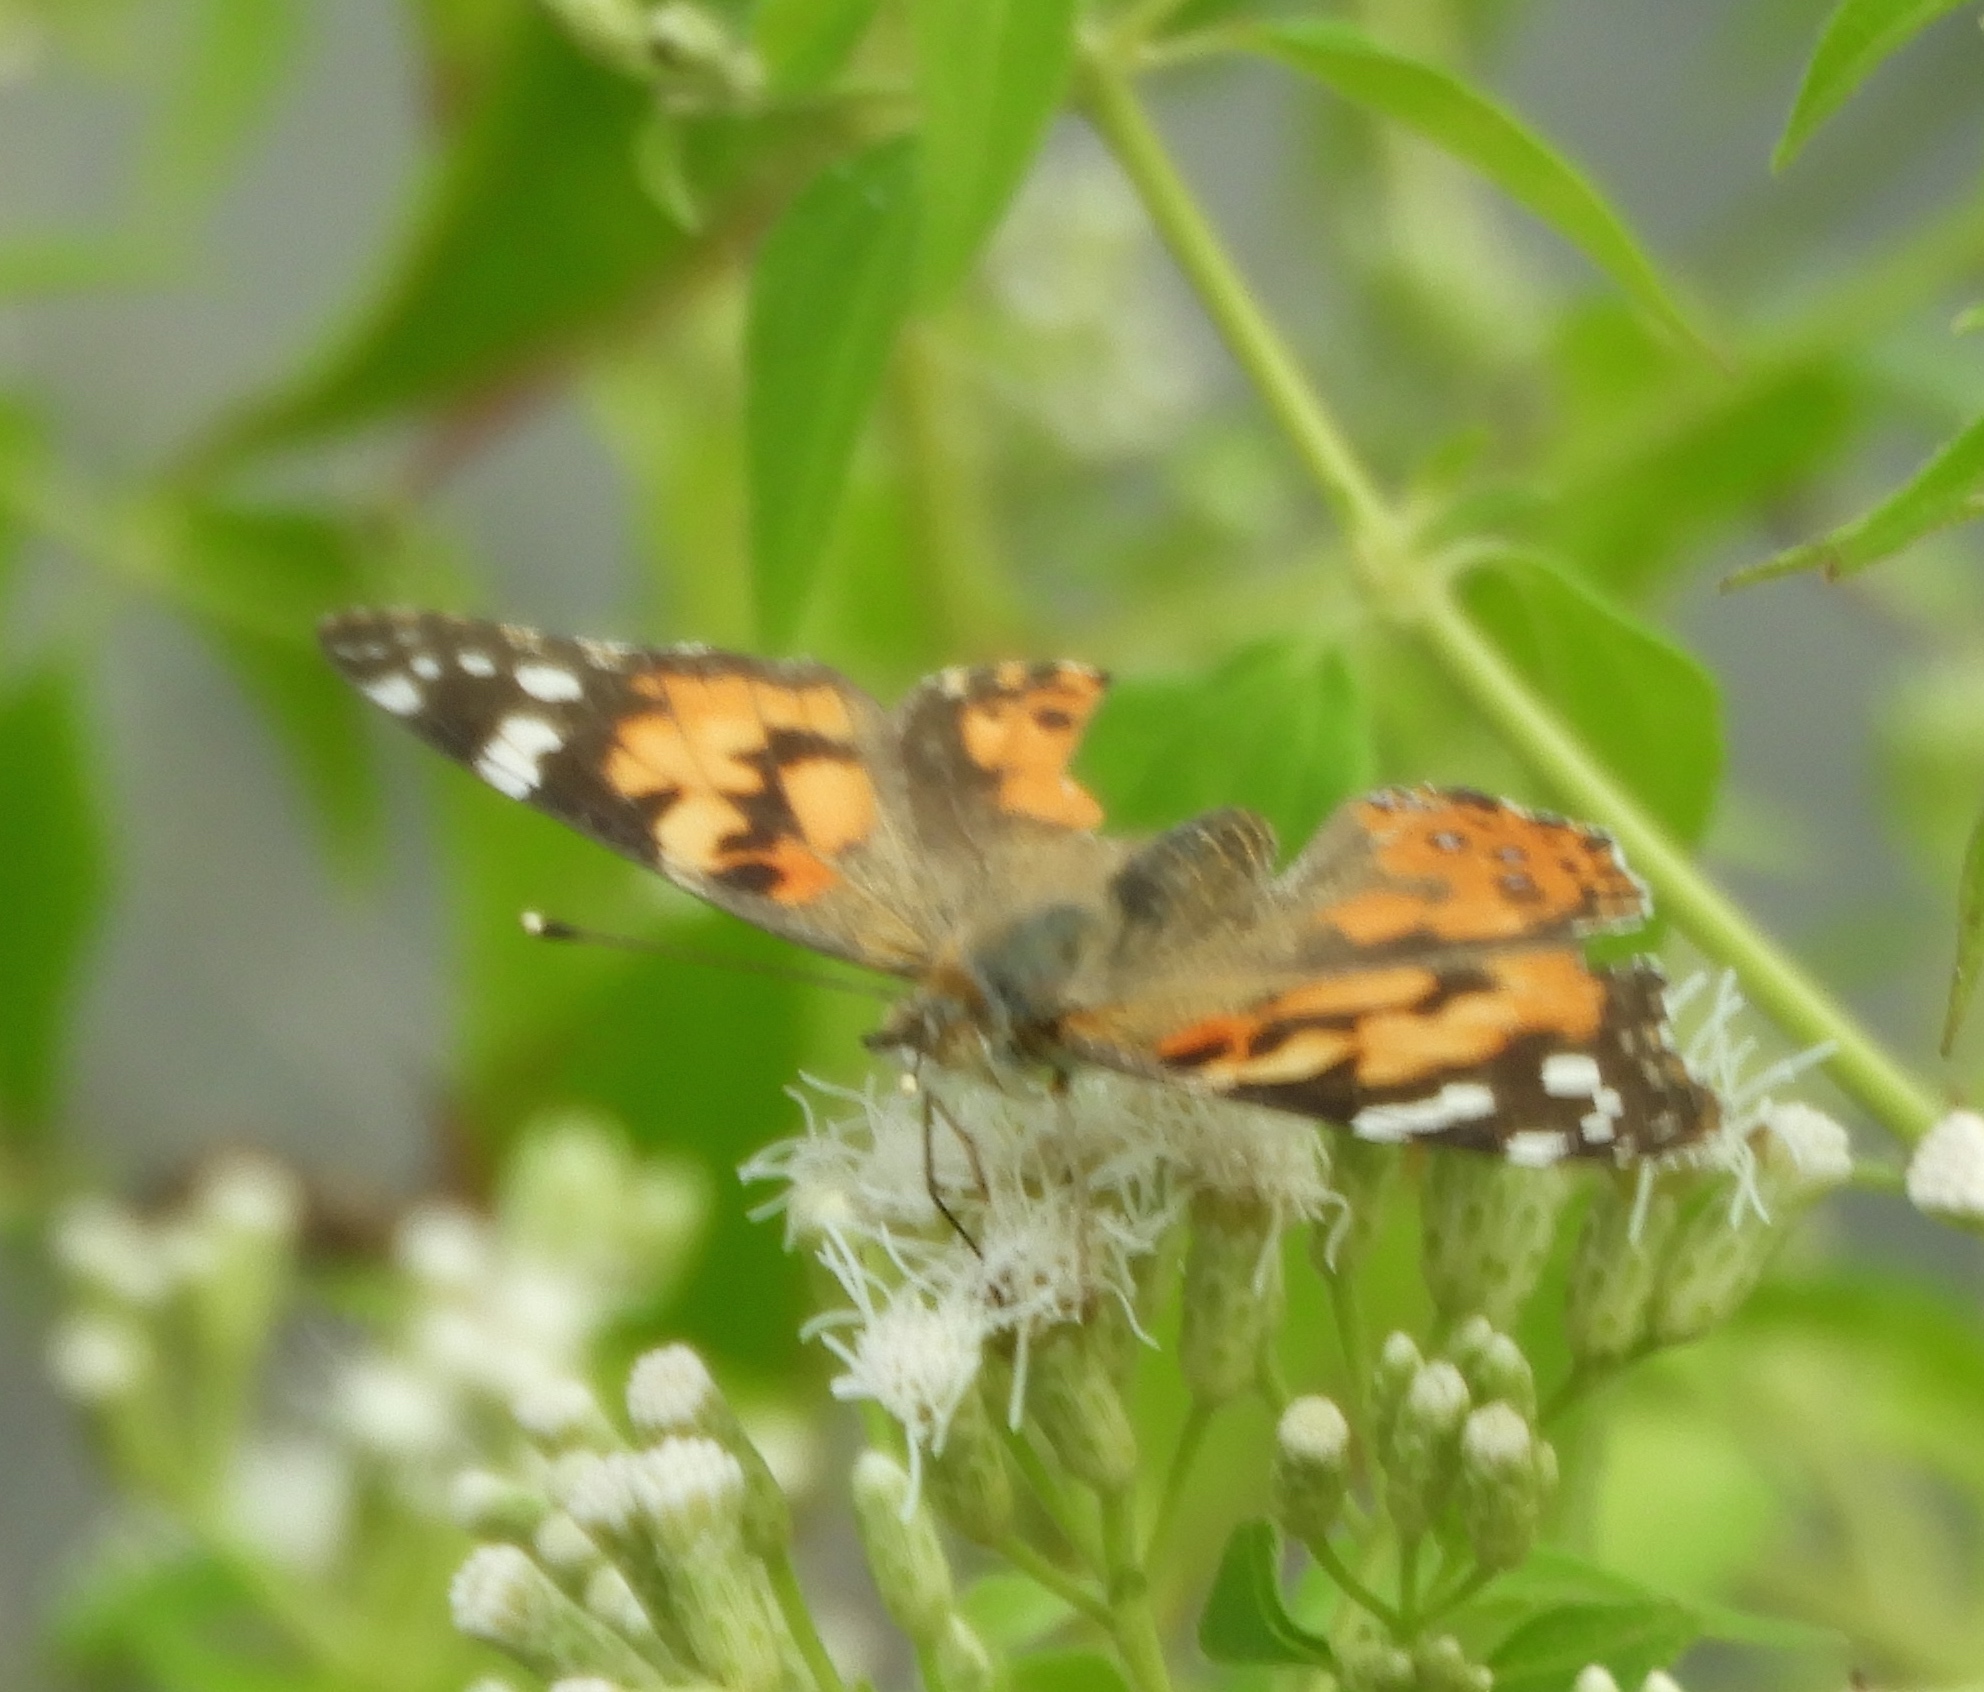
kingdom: Animalia
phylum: Arthropoda
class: Insecta
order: Lepidoptera
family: Nymphalidae
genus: Vanessa
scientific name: Vanessa cardui
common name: Painted lady
